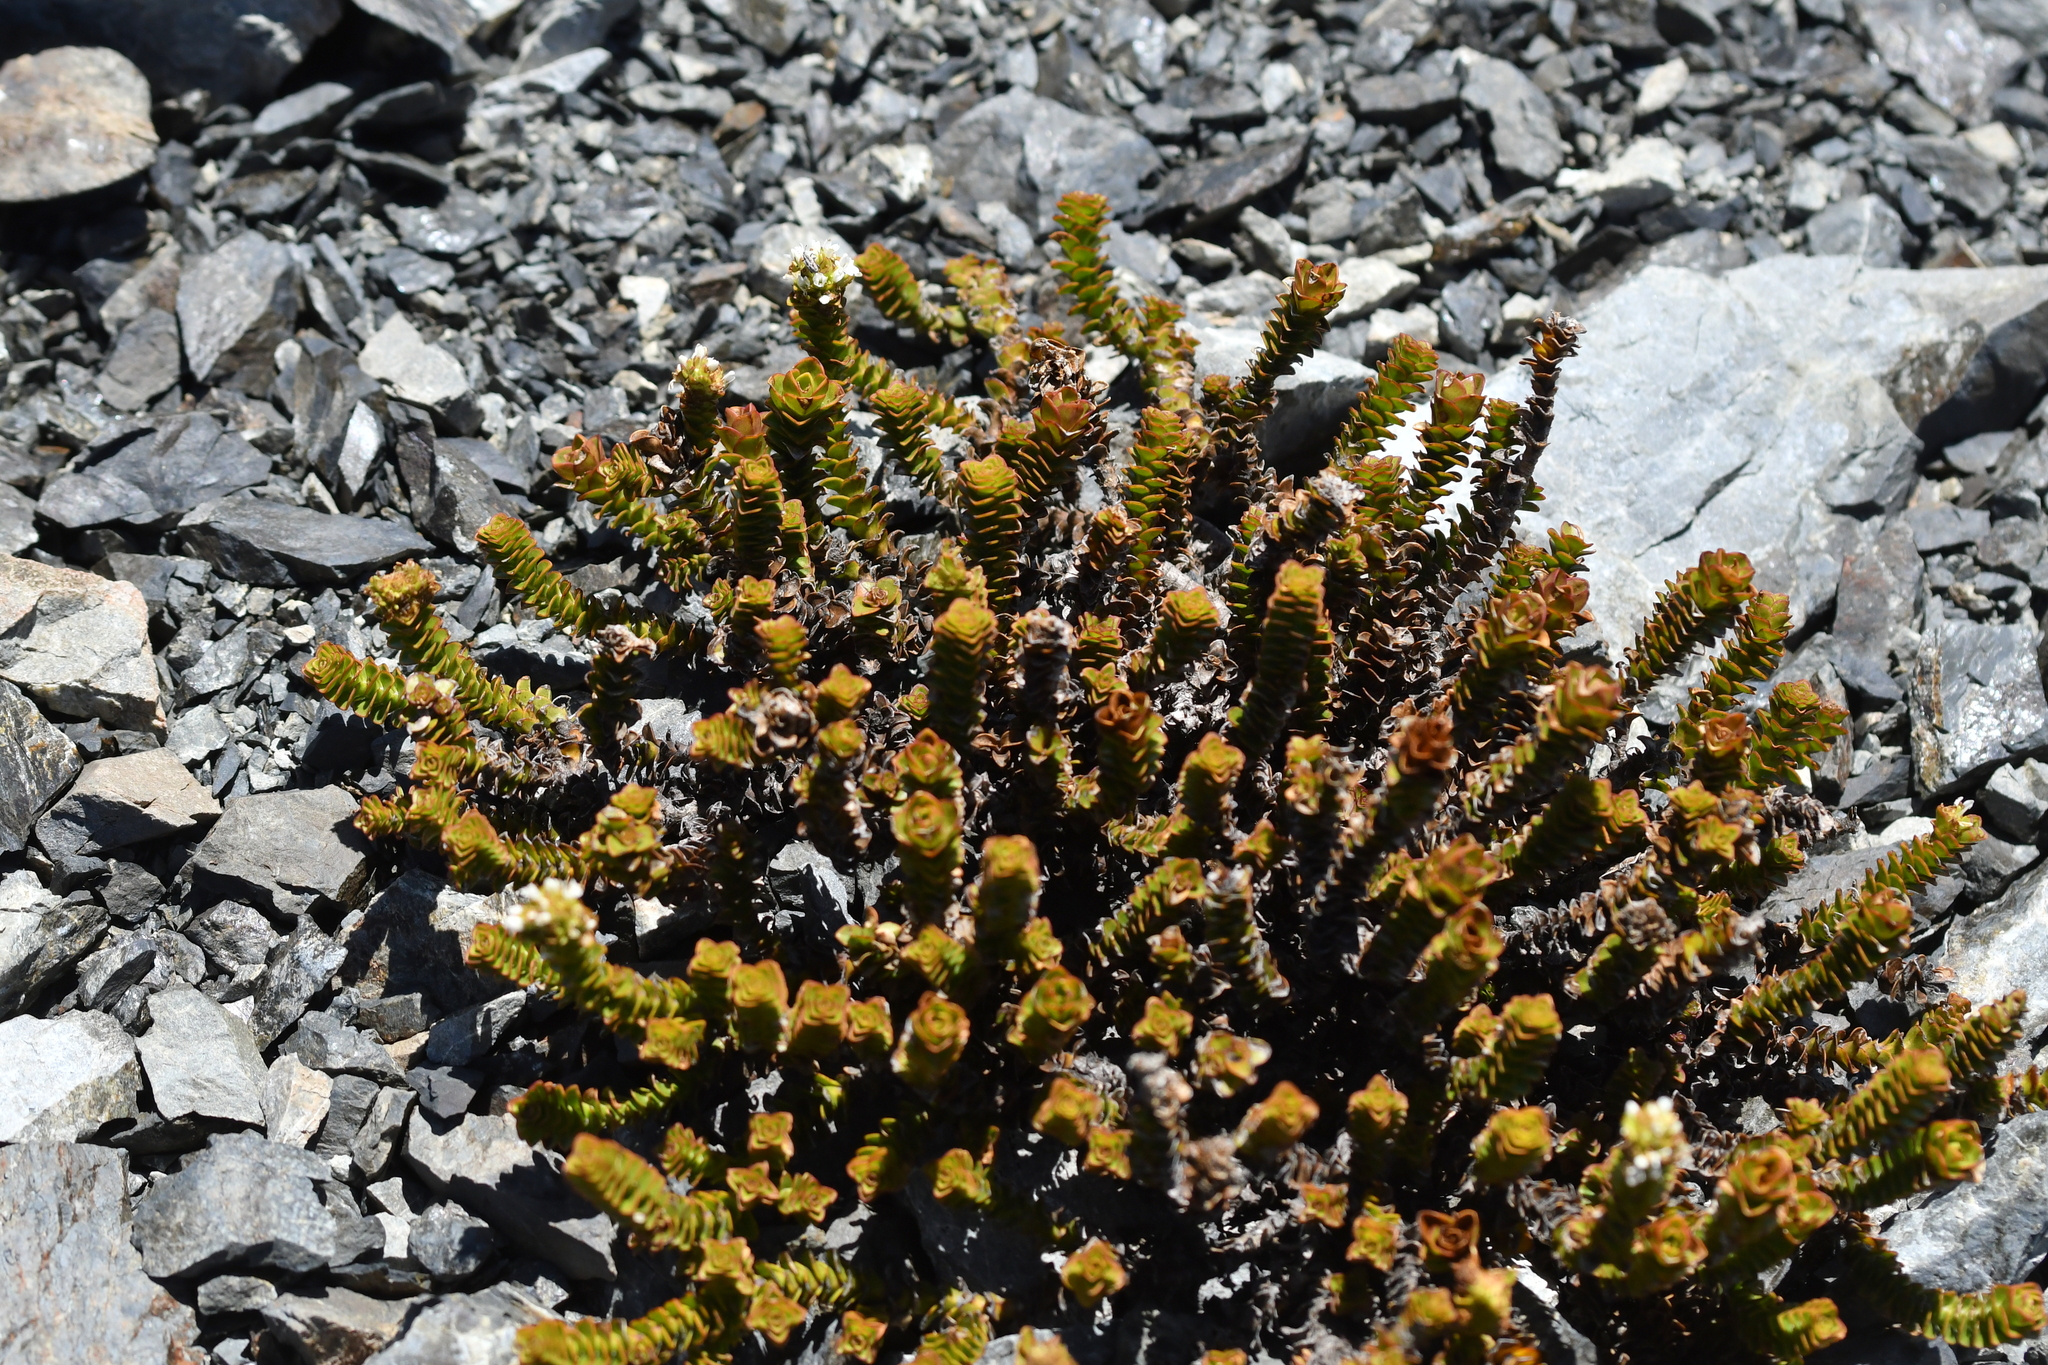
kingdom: Plantae
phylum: Tracheophyta
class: Magnoliopsida
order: Lamiales
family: Plantaginaceae
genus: Veronica
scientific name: Veronica epacridea
